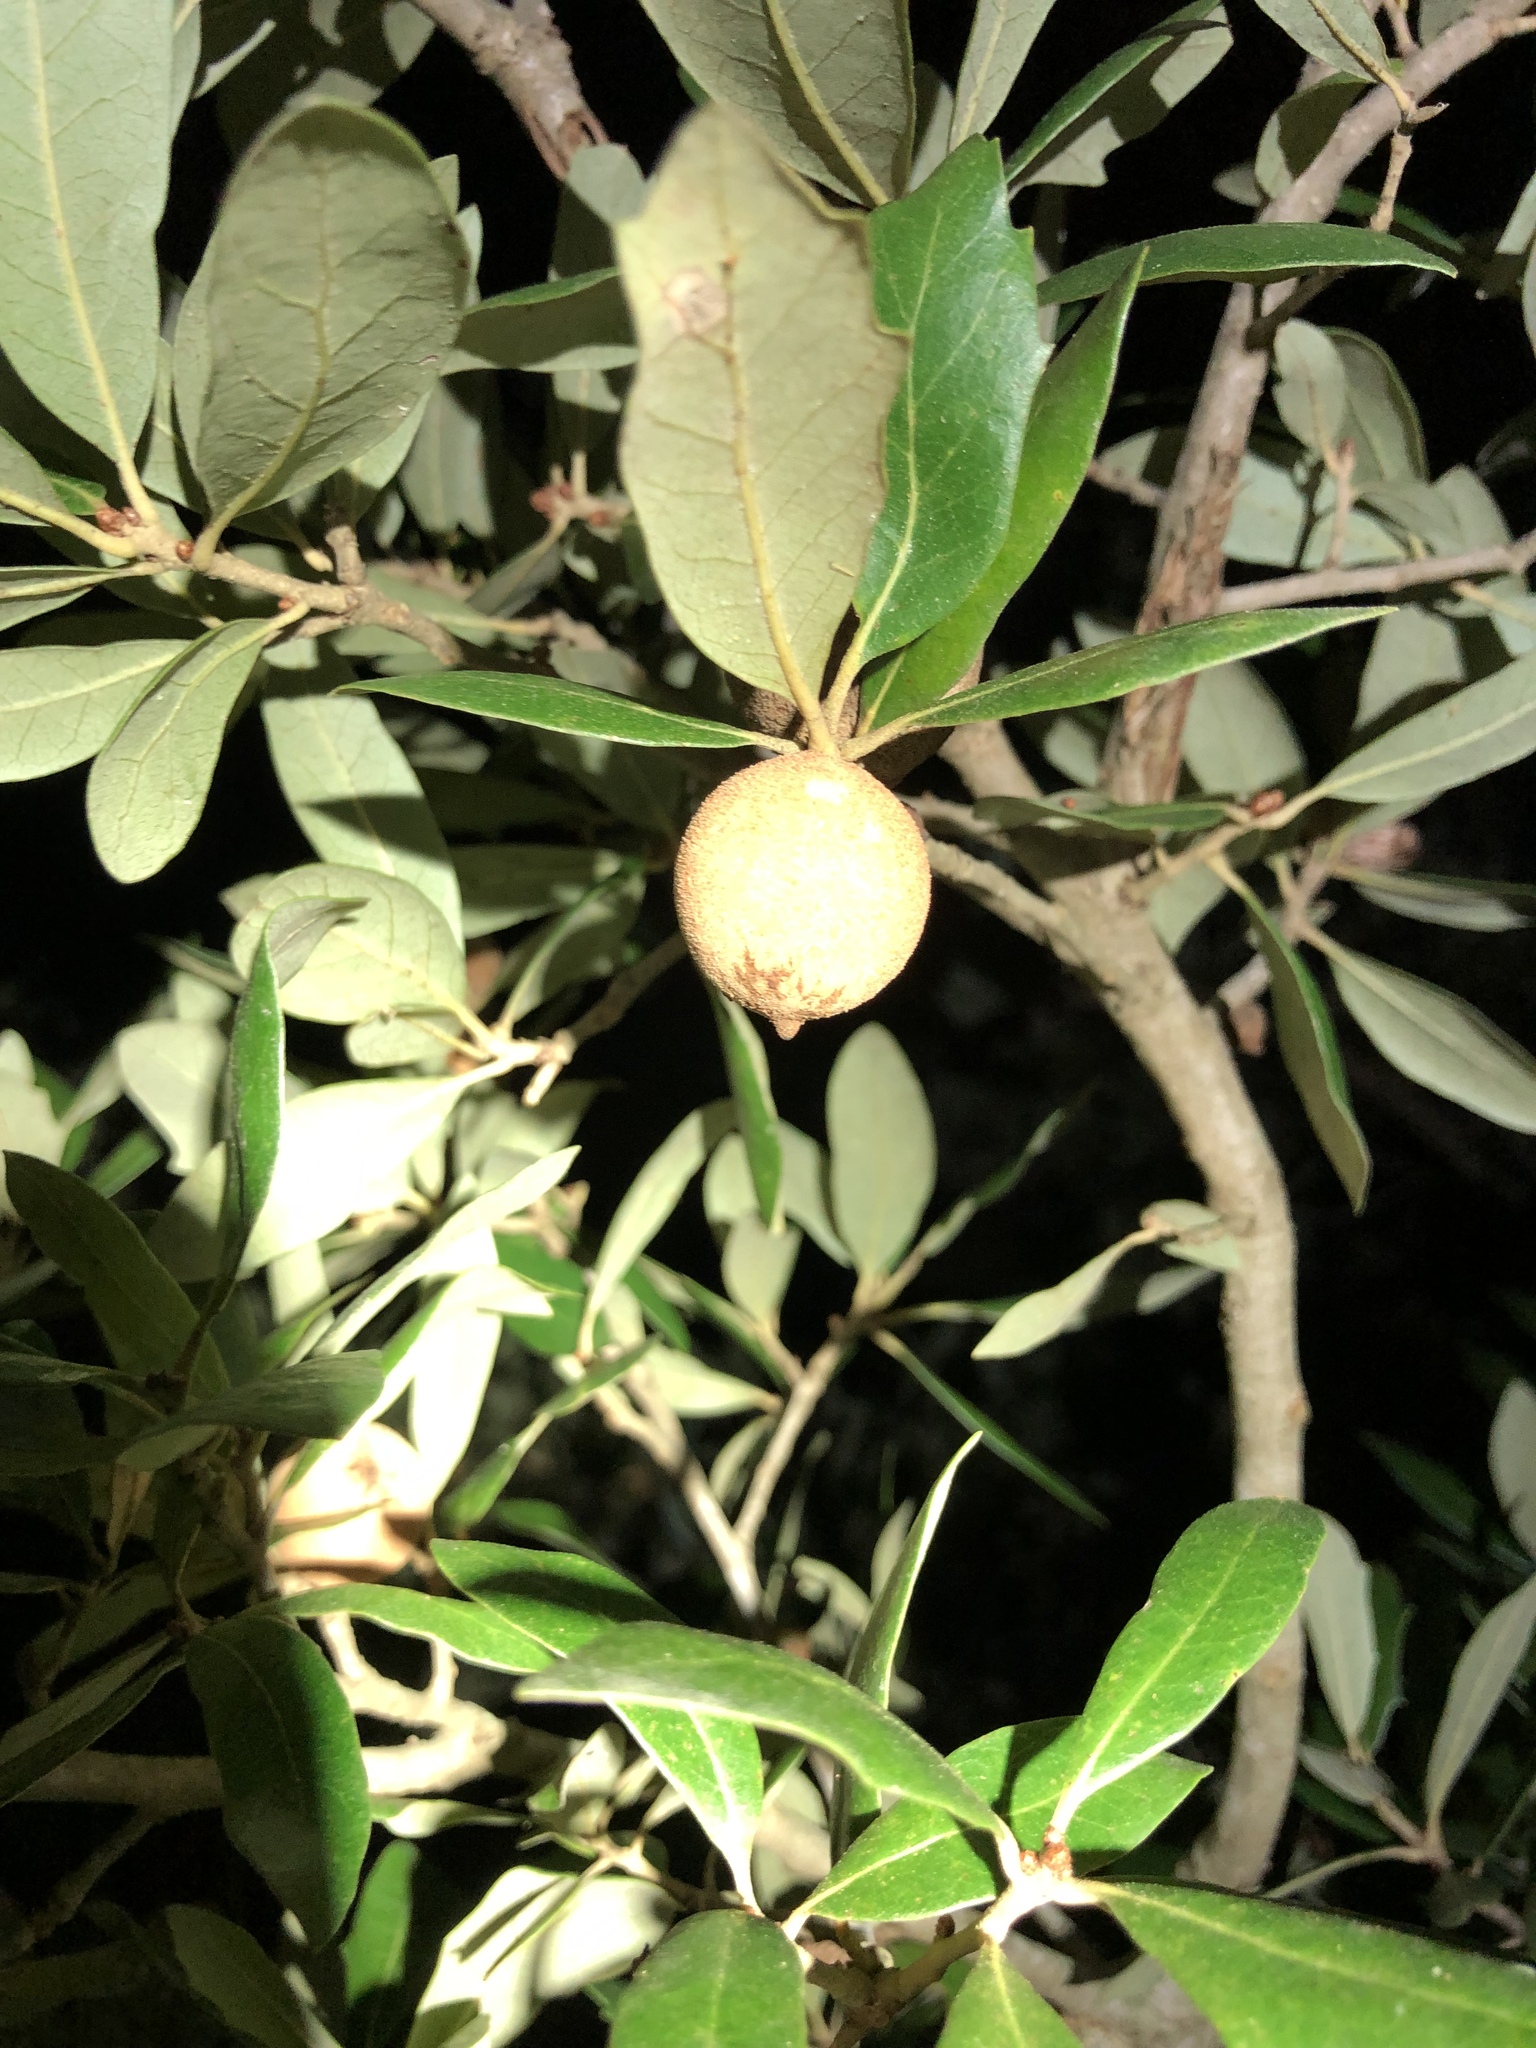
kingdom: Animalia
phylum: Arthropoda
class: Insecta
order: Hymenoptera
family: Cynipidae
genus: Disholcaspis
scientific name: Disholcaspis
